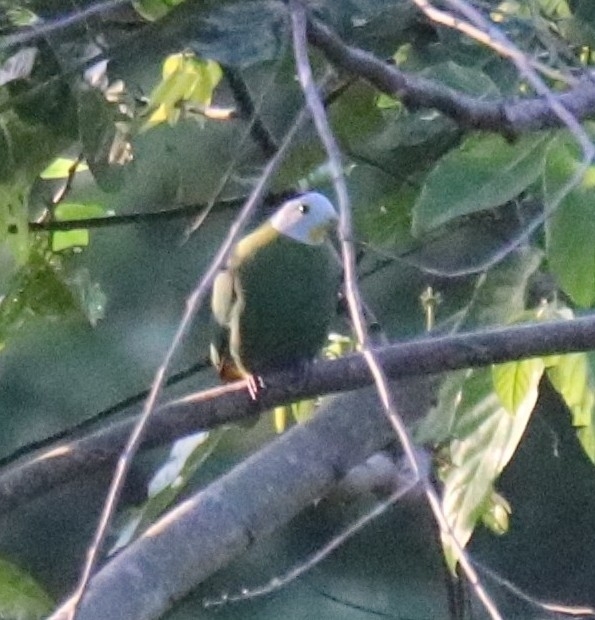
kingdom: Animalia
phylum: Chordata
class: Aves
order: Columbiformes
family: Columbidae
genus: Ptilinopus
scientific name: Ptilinopus melanospilus
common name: Black-naped fruit dove
